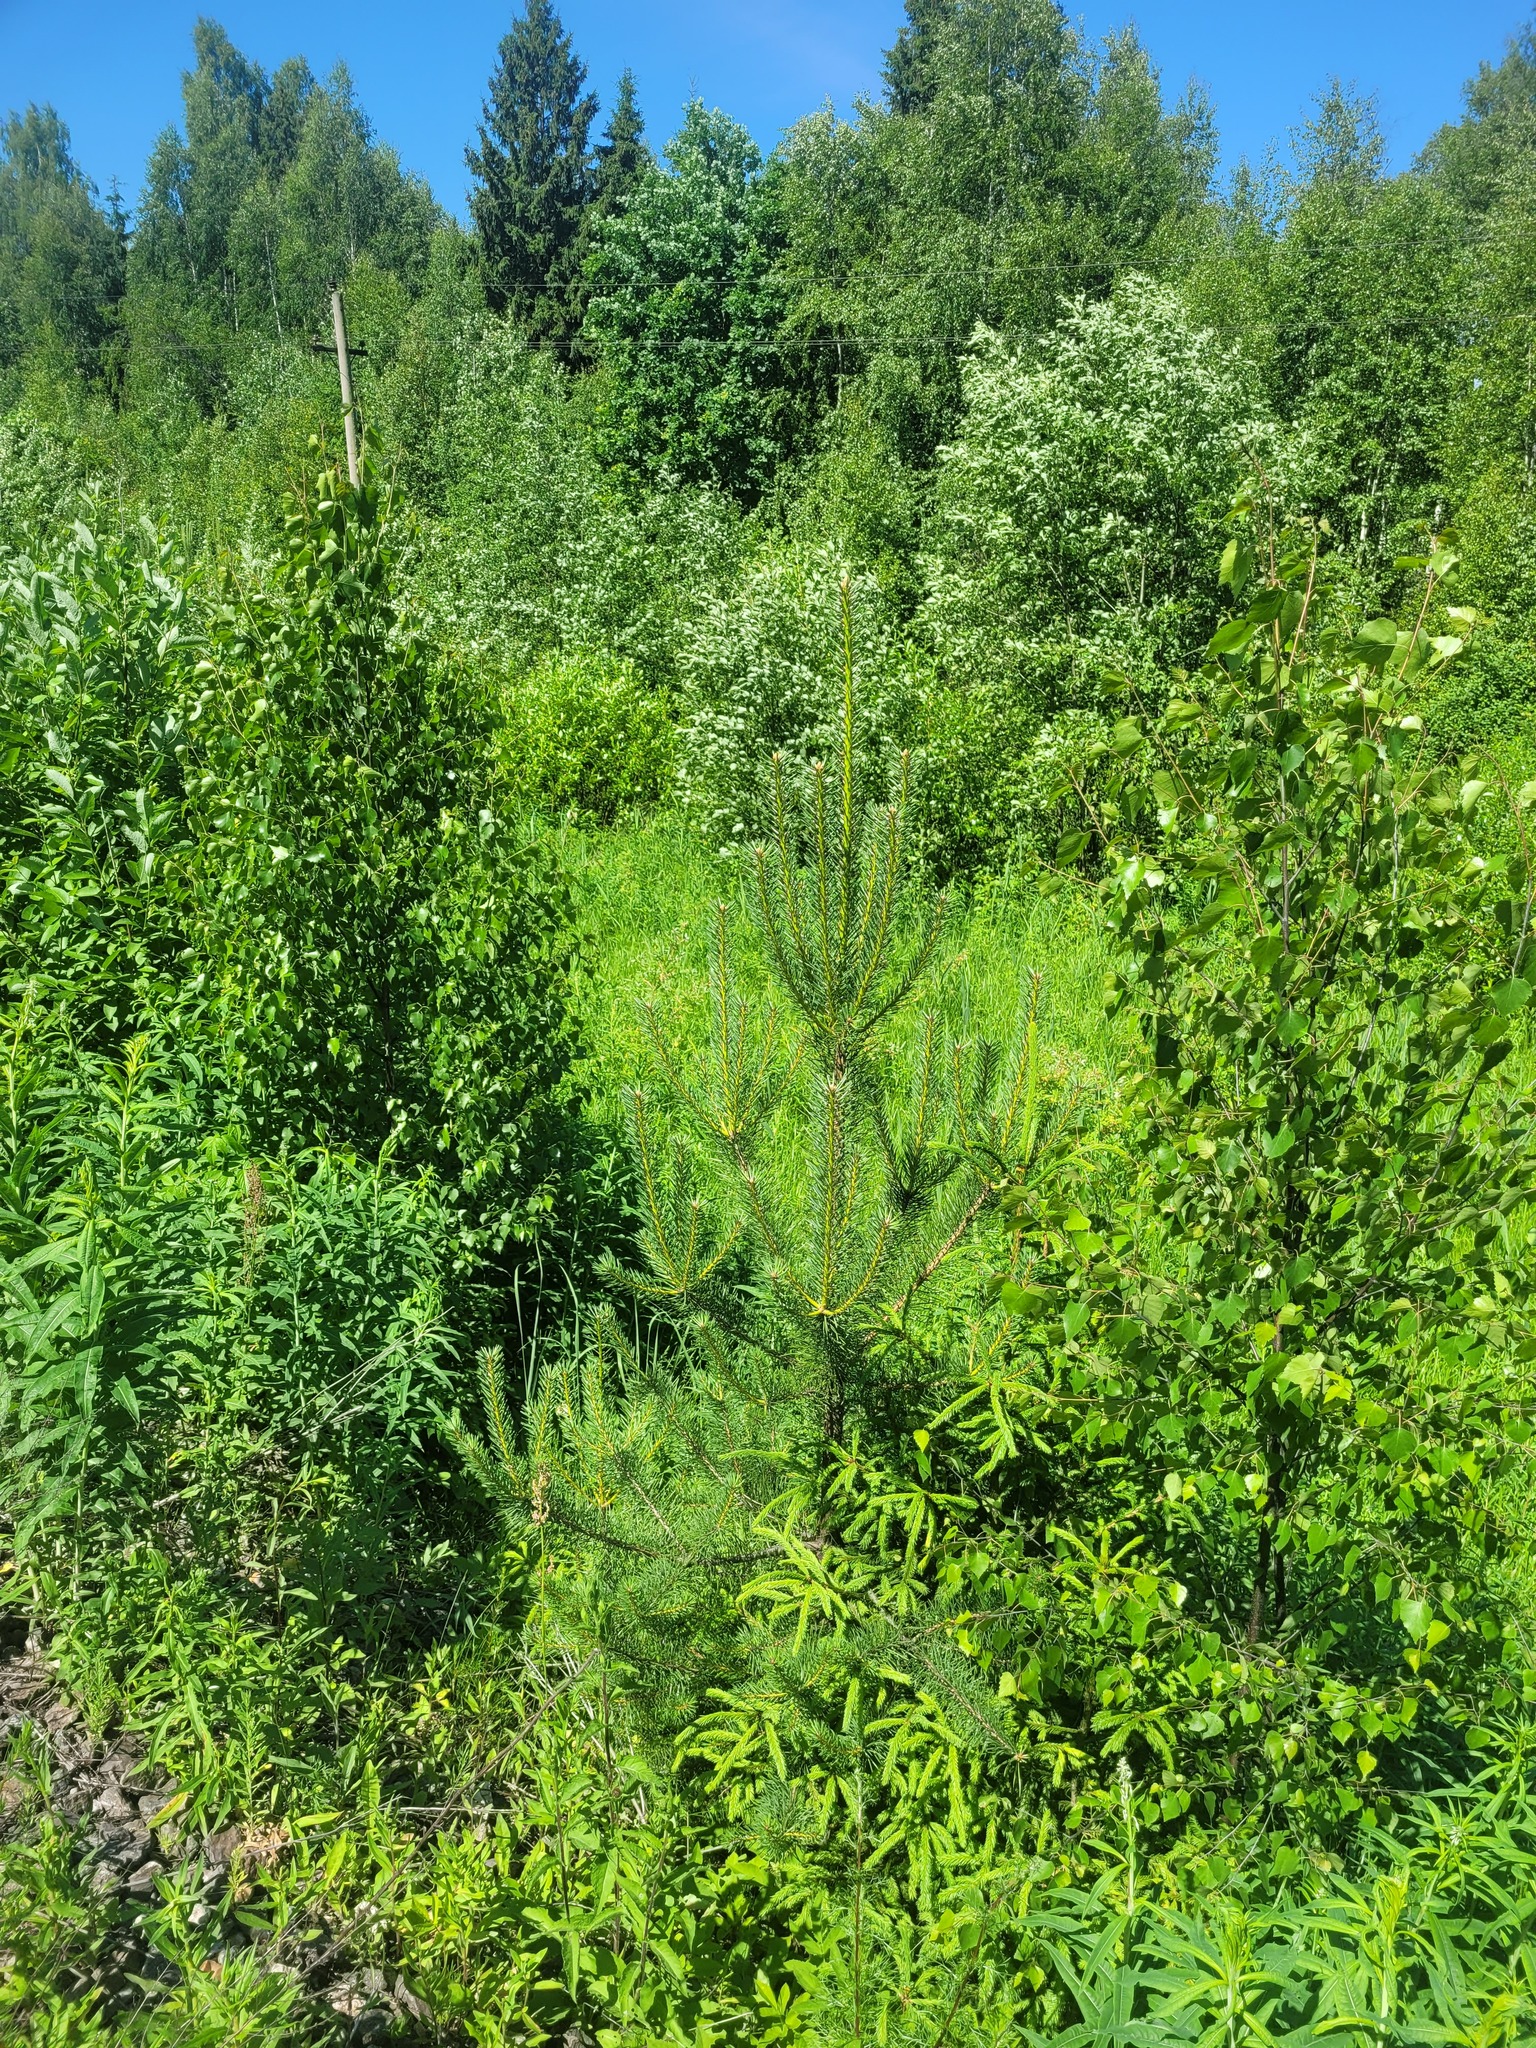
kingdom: Plantae
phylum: Tracheophyta
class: Pinopsida
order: Pinales
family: Pinaceae
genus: Pinus
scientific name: Pinus sylvestris
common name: Scots pine
